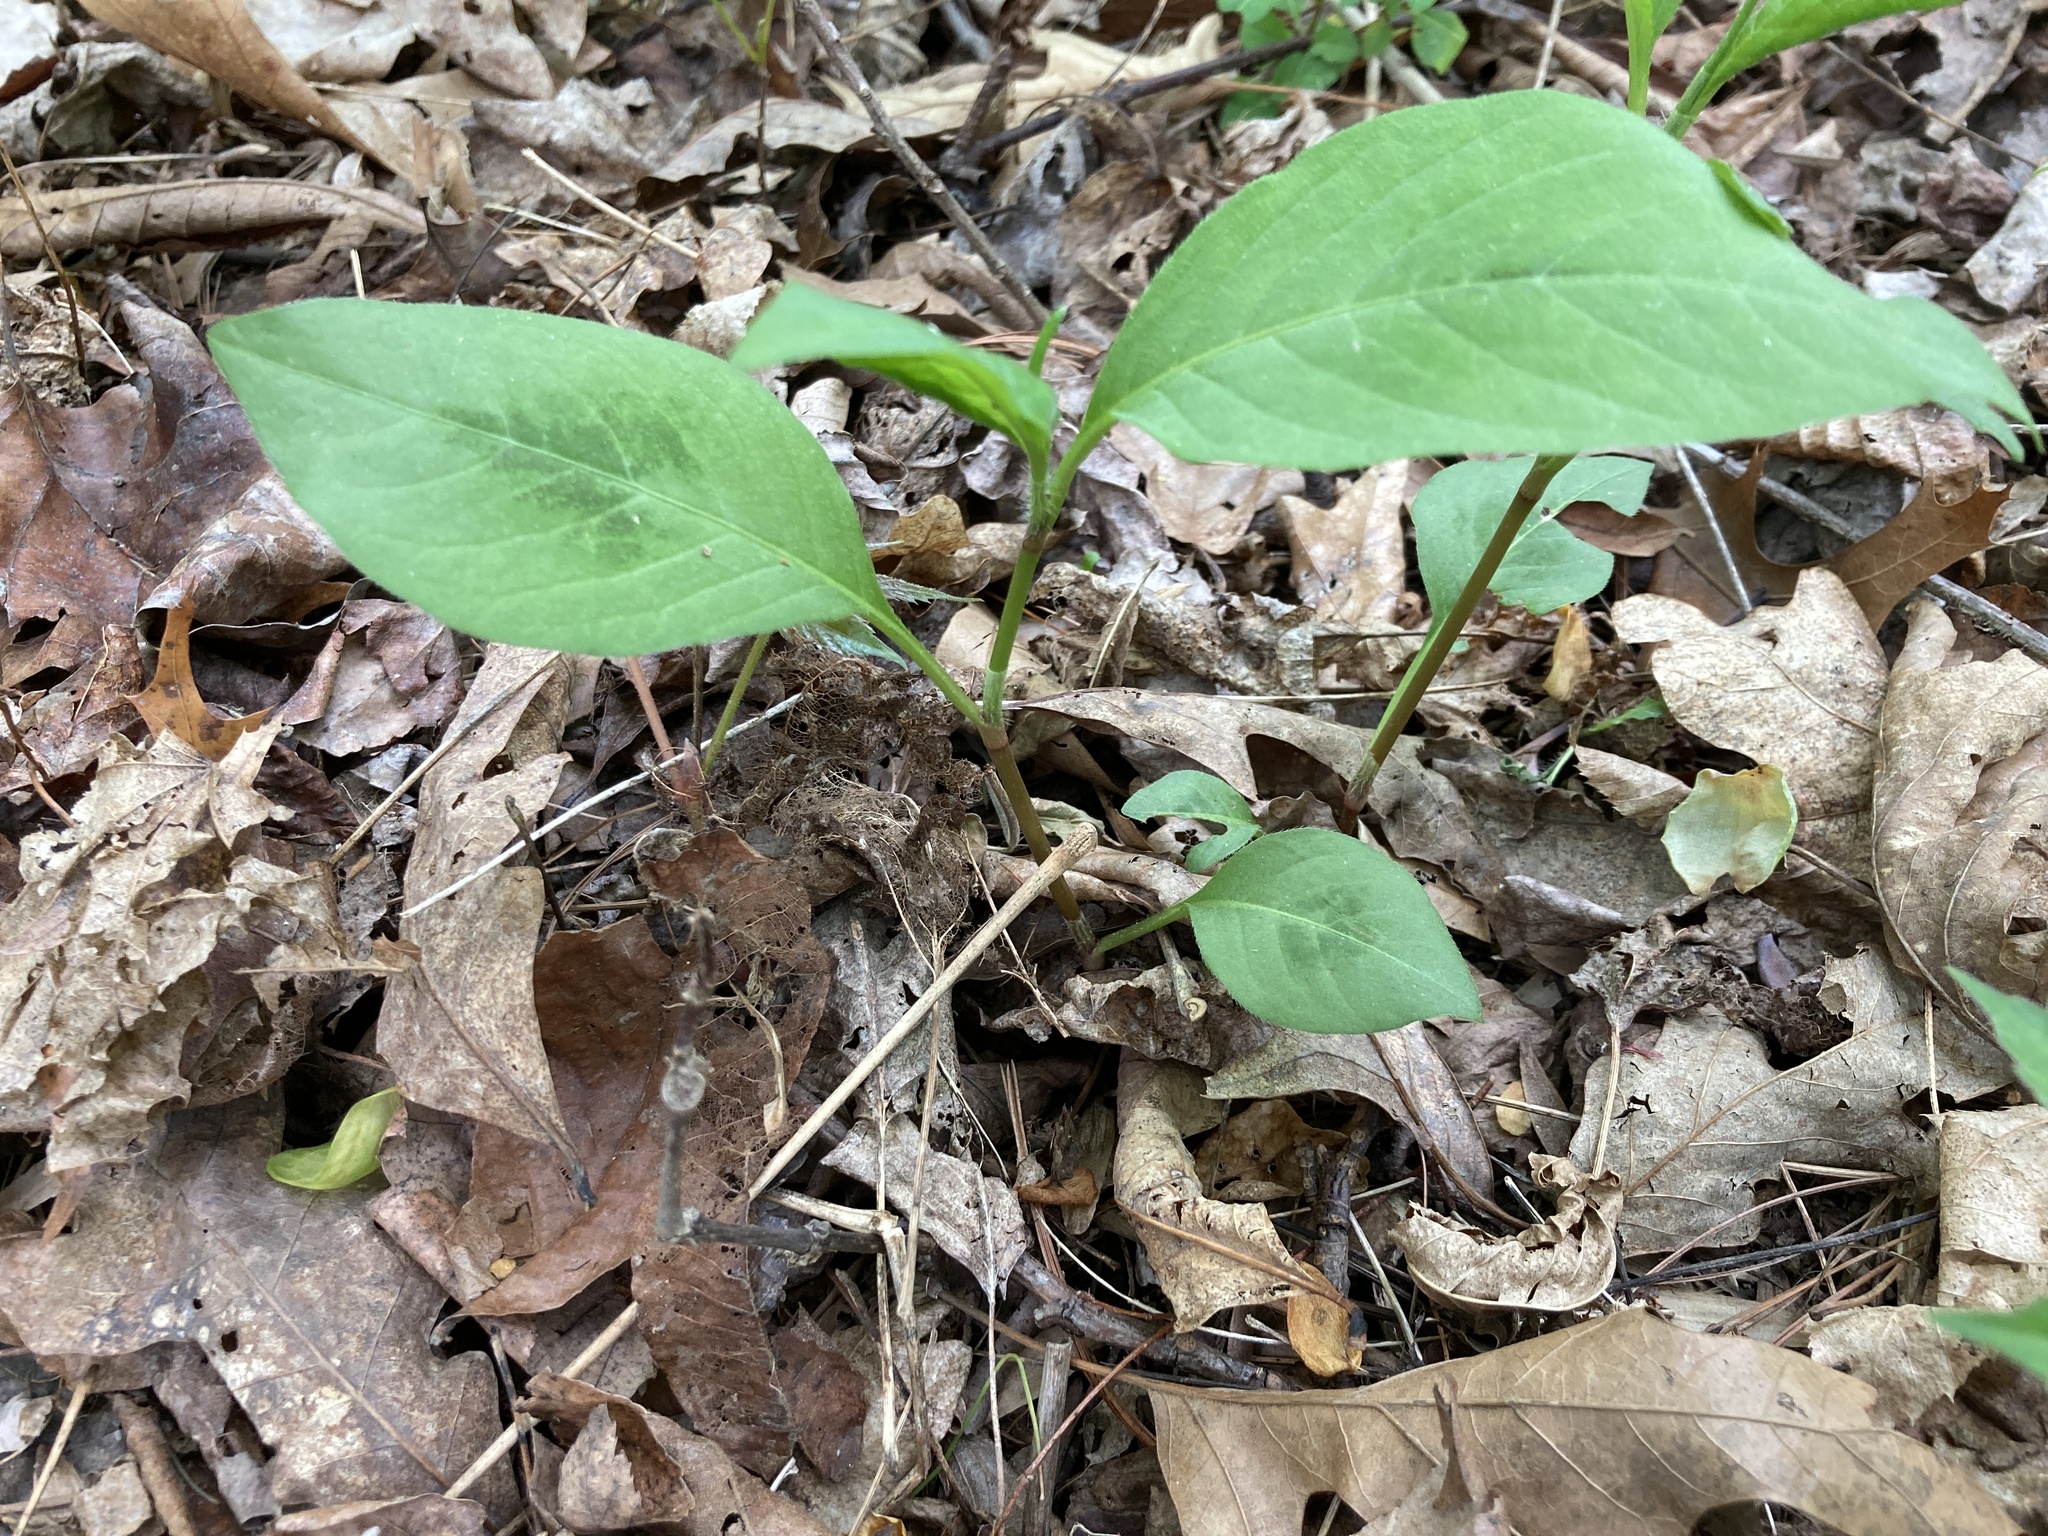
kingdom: Plantae
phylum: Tracheophyta
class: Magnoliopsida
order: Caryophyllales
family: Polygonaceae
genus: Persicaria
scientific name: Persicaria virginiana
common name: Jumpseed
